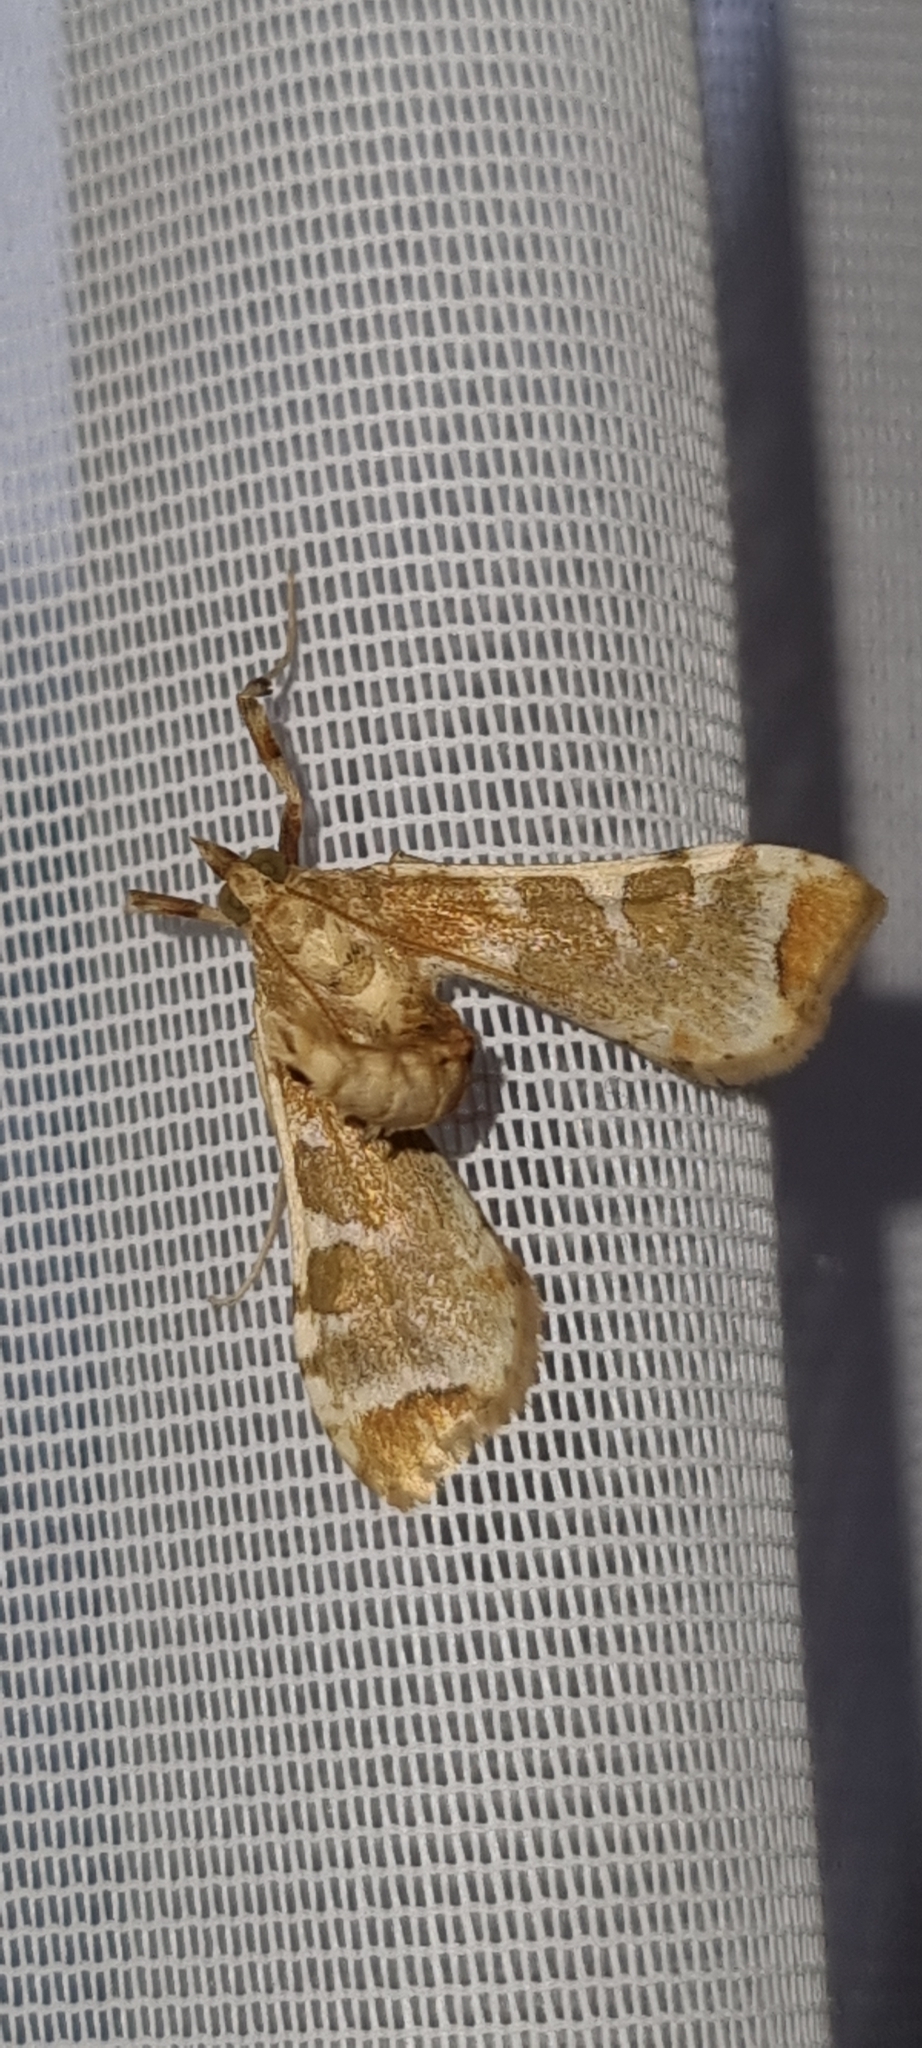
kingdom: Animalia
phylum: Arthropoda
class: Insecta
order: Lepidoptera
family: Crambidae
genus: Sceliodes
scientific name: Sceliodes cordalis
